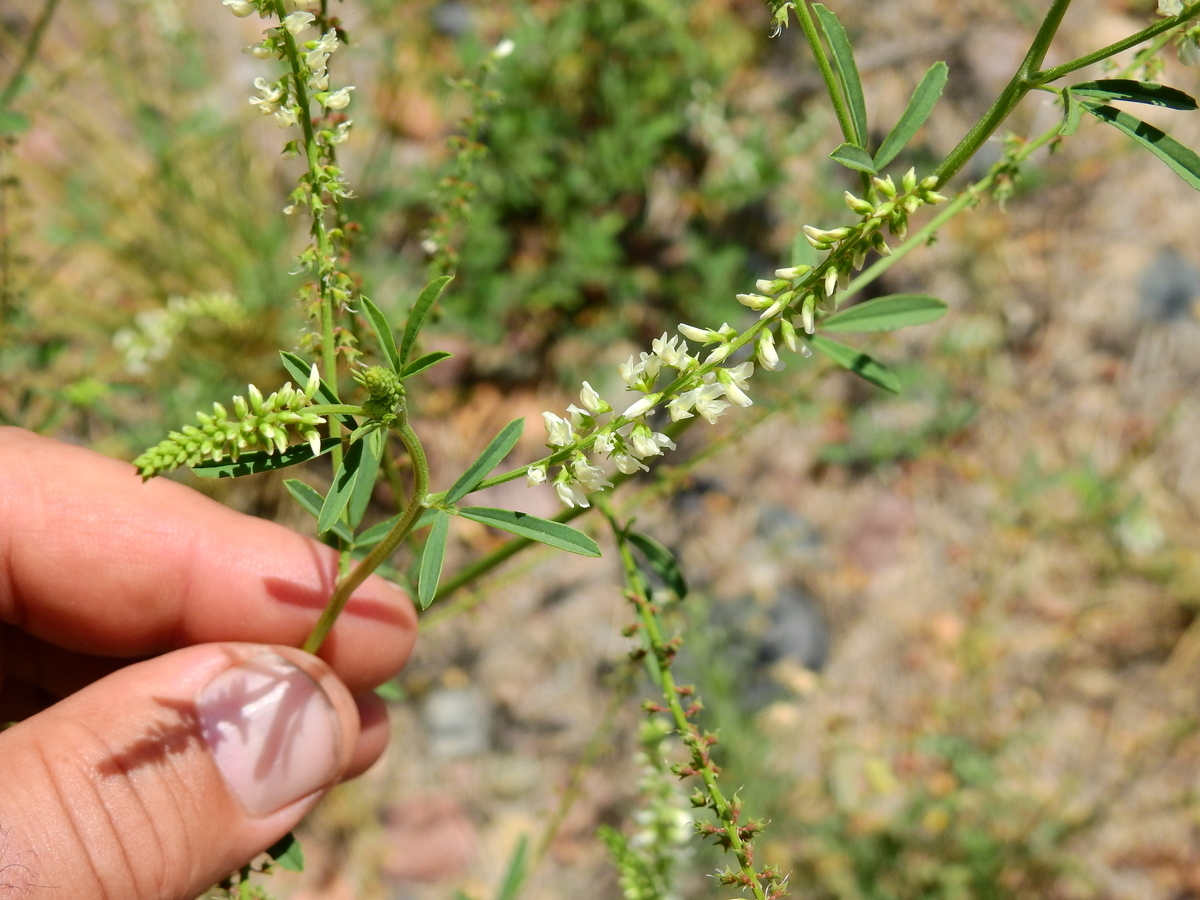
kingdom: Plantae
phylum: Tracheophyta
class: Magnoliopsida
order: Fabales
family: Fabaceae
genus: Melilotus
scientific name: Melilotus albus
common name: White melilot
